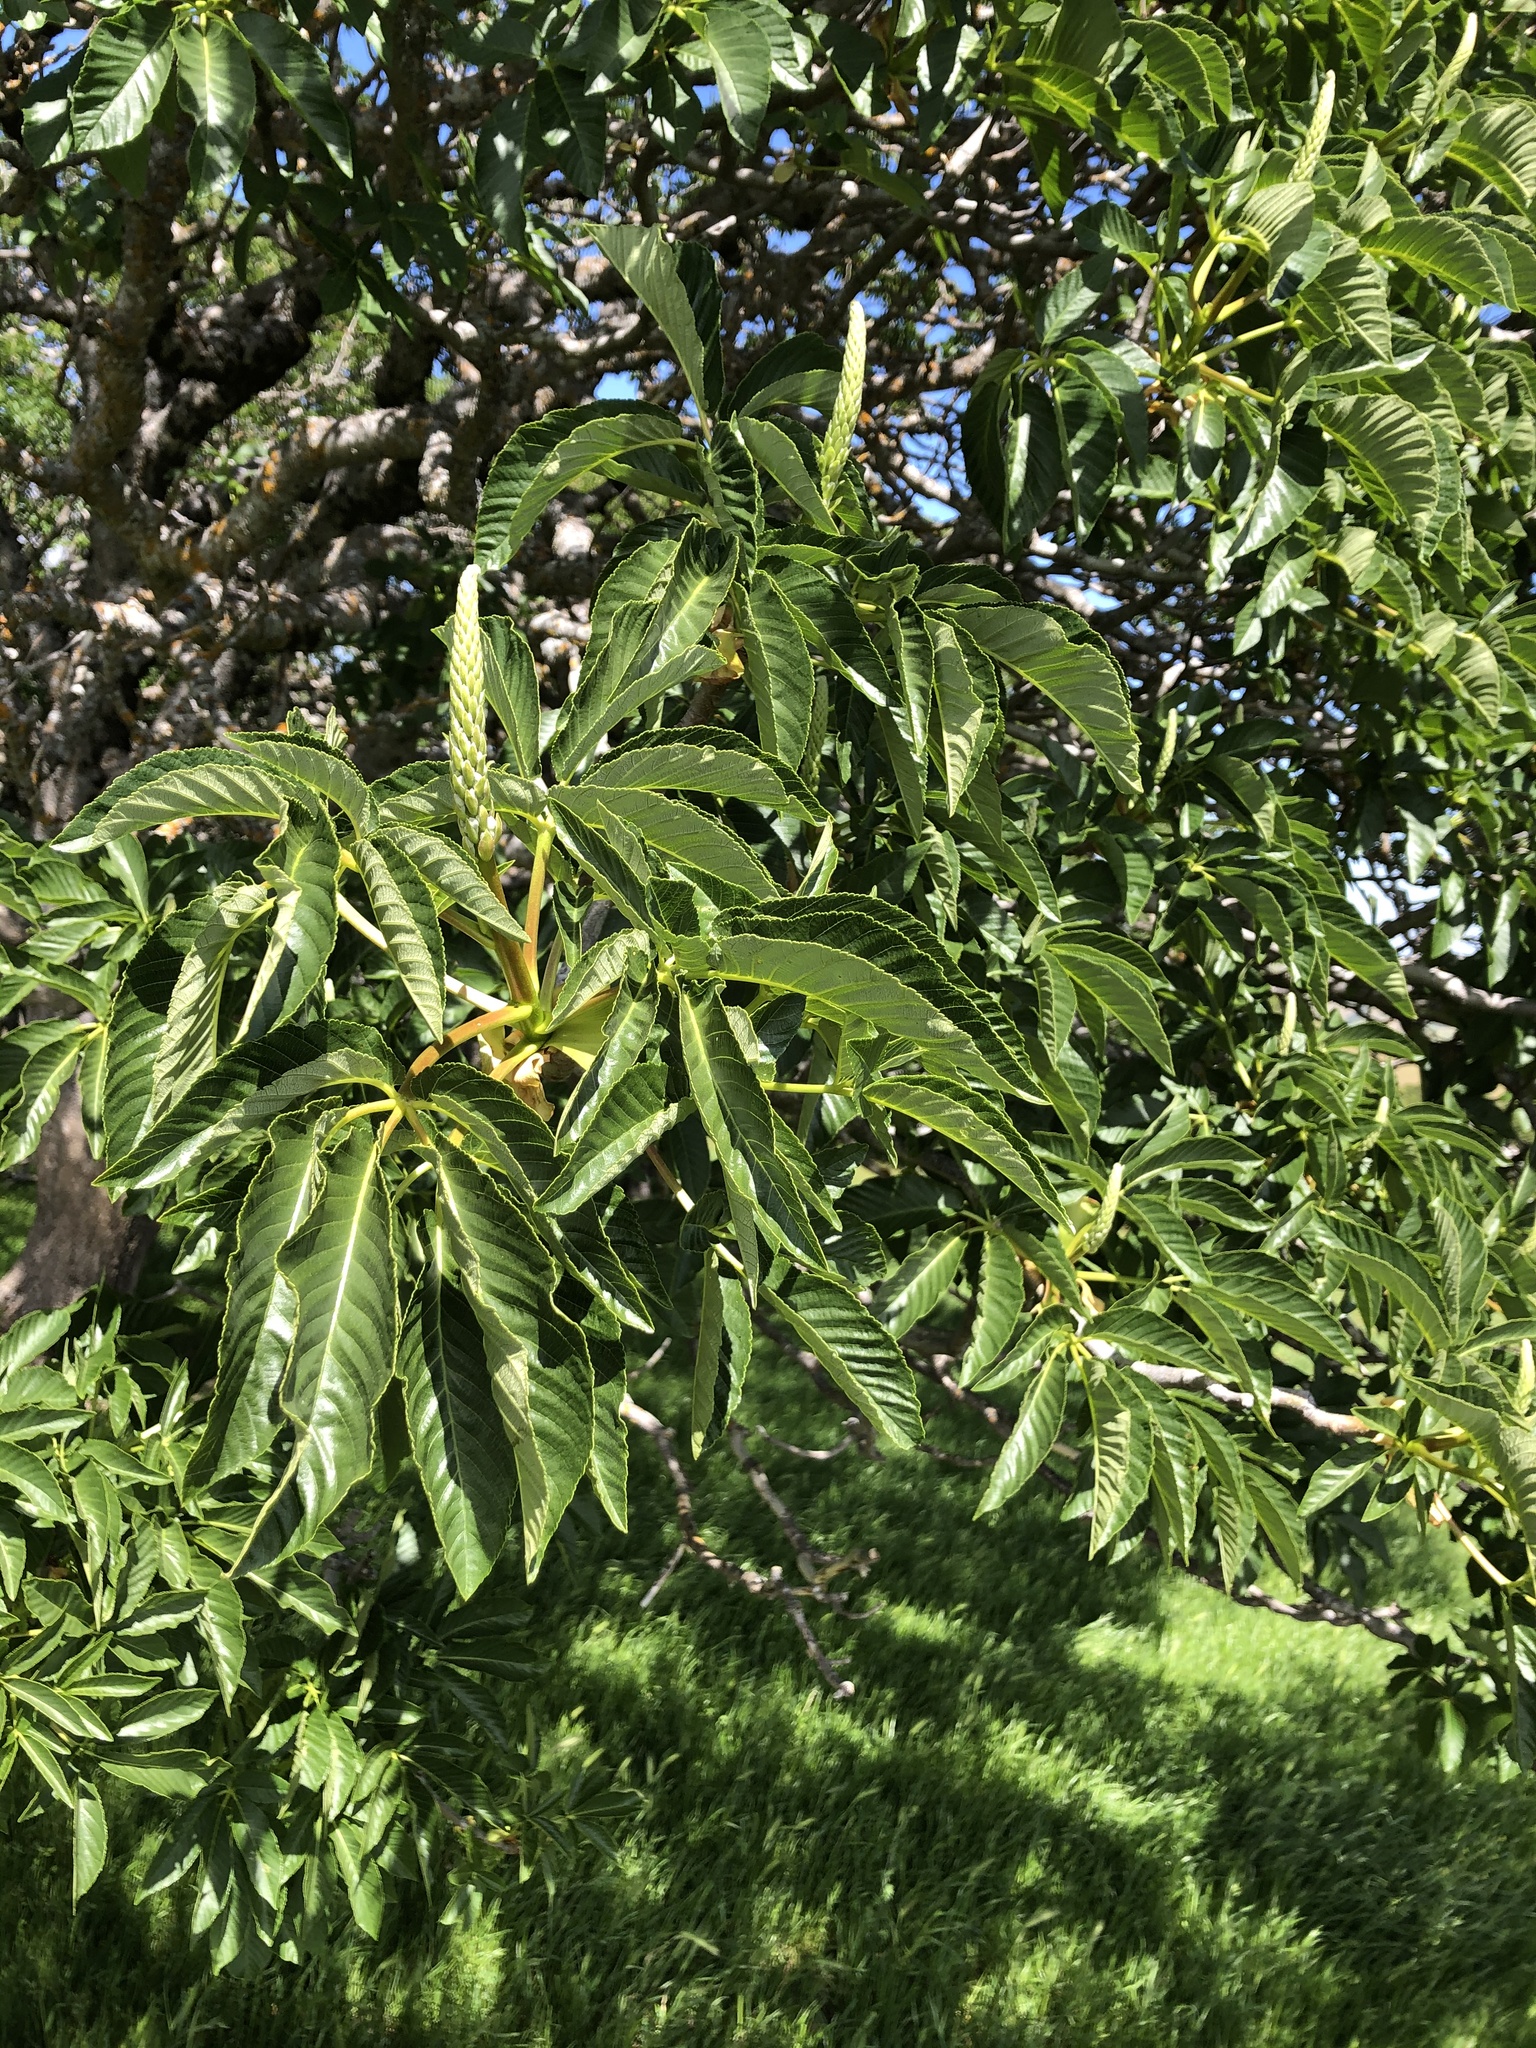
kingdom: Plantae
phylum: Tracheophyta
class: Magnoliopsida
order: Sapindales
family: Sapindaceae
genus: Aesculus
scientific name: Aesculus californica
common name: California buckeye
